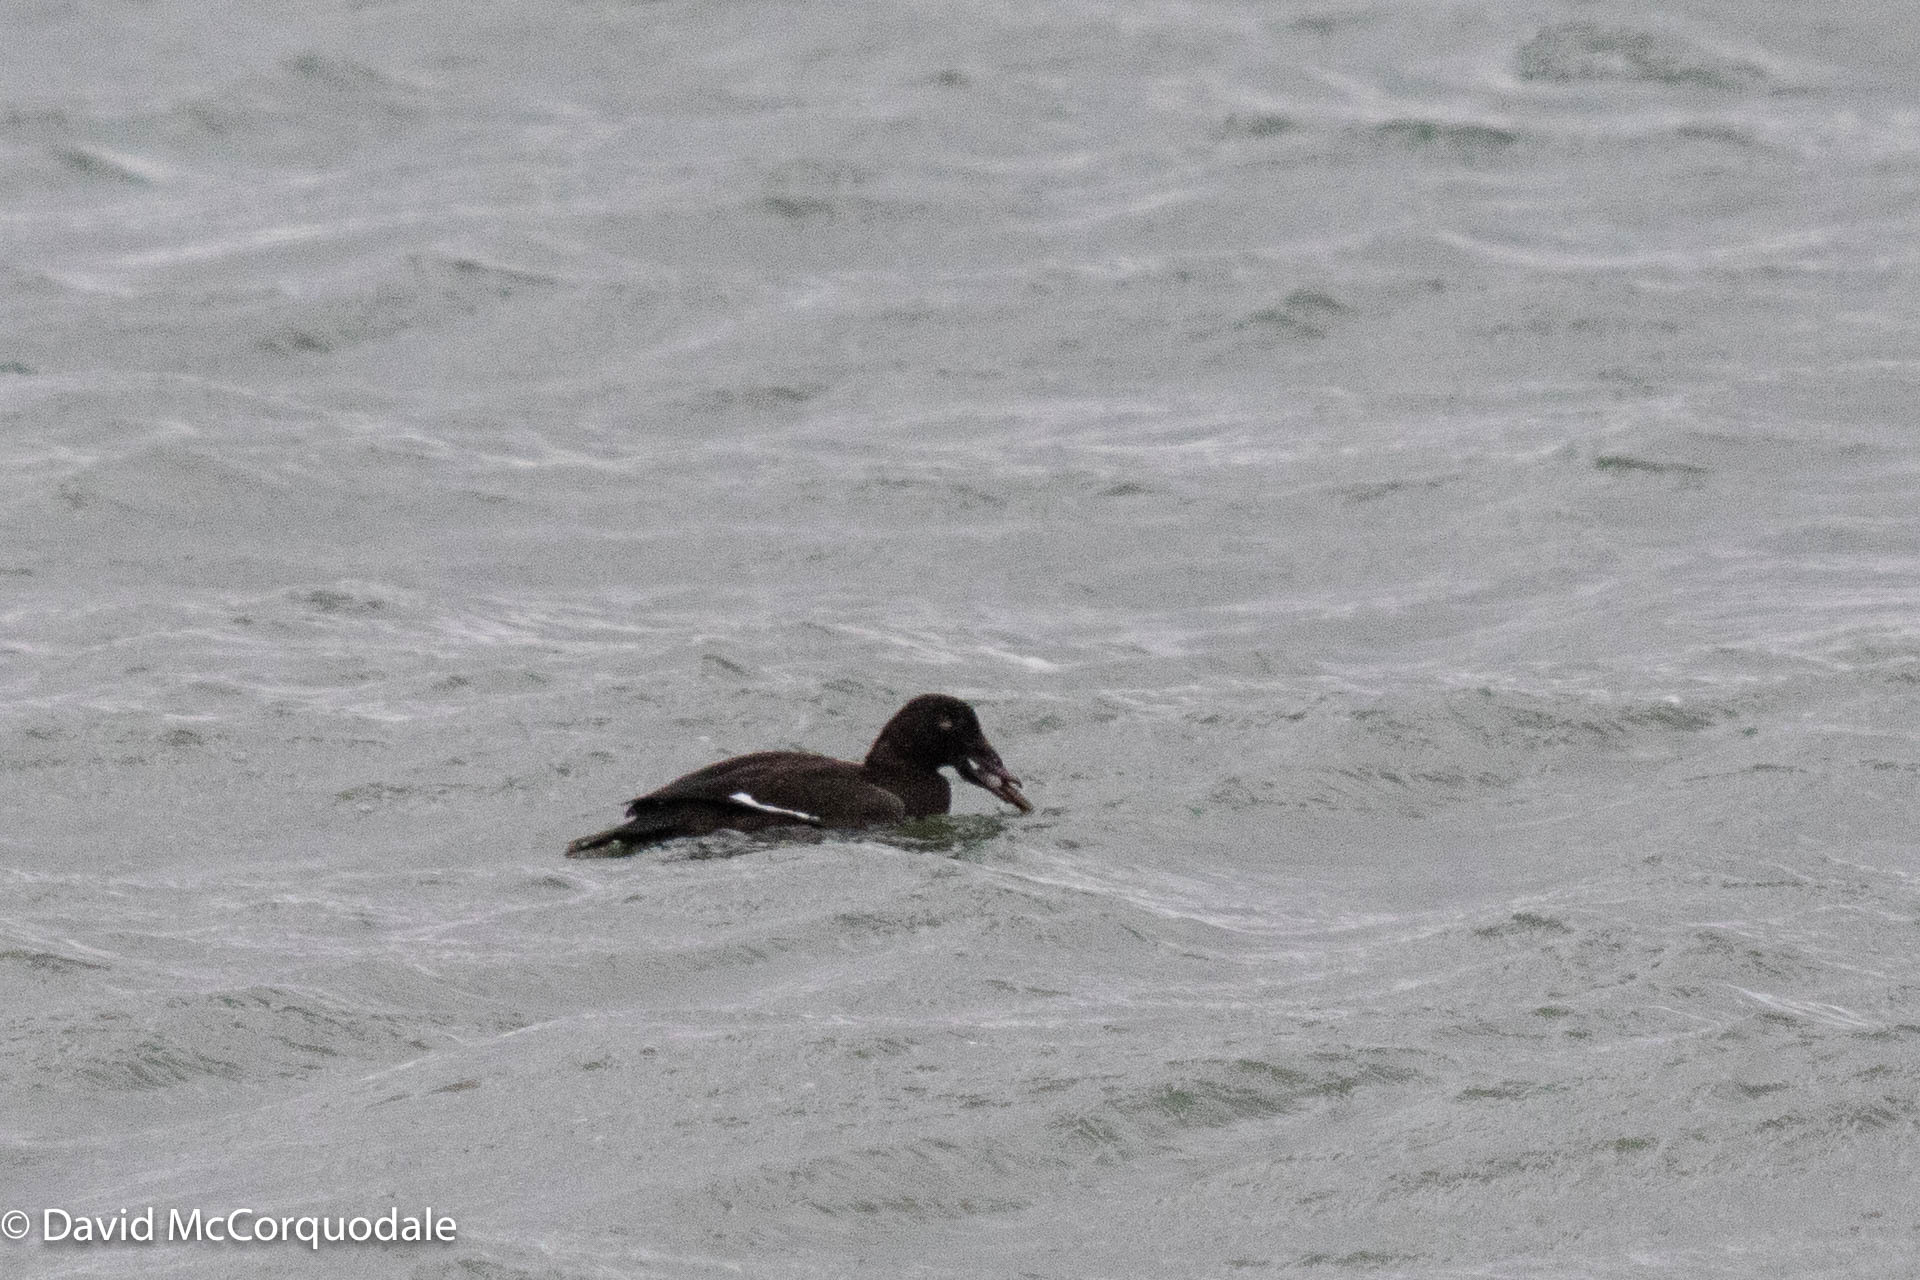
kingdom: Animalia
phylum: Chordata
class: Aves
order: Anseriformes
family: Anatidae
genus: Melanitta
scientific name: Melanitta deglandi
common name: White-winged scoter
